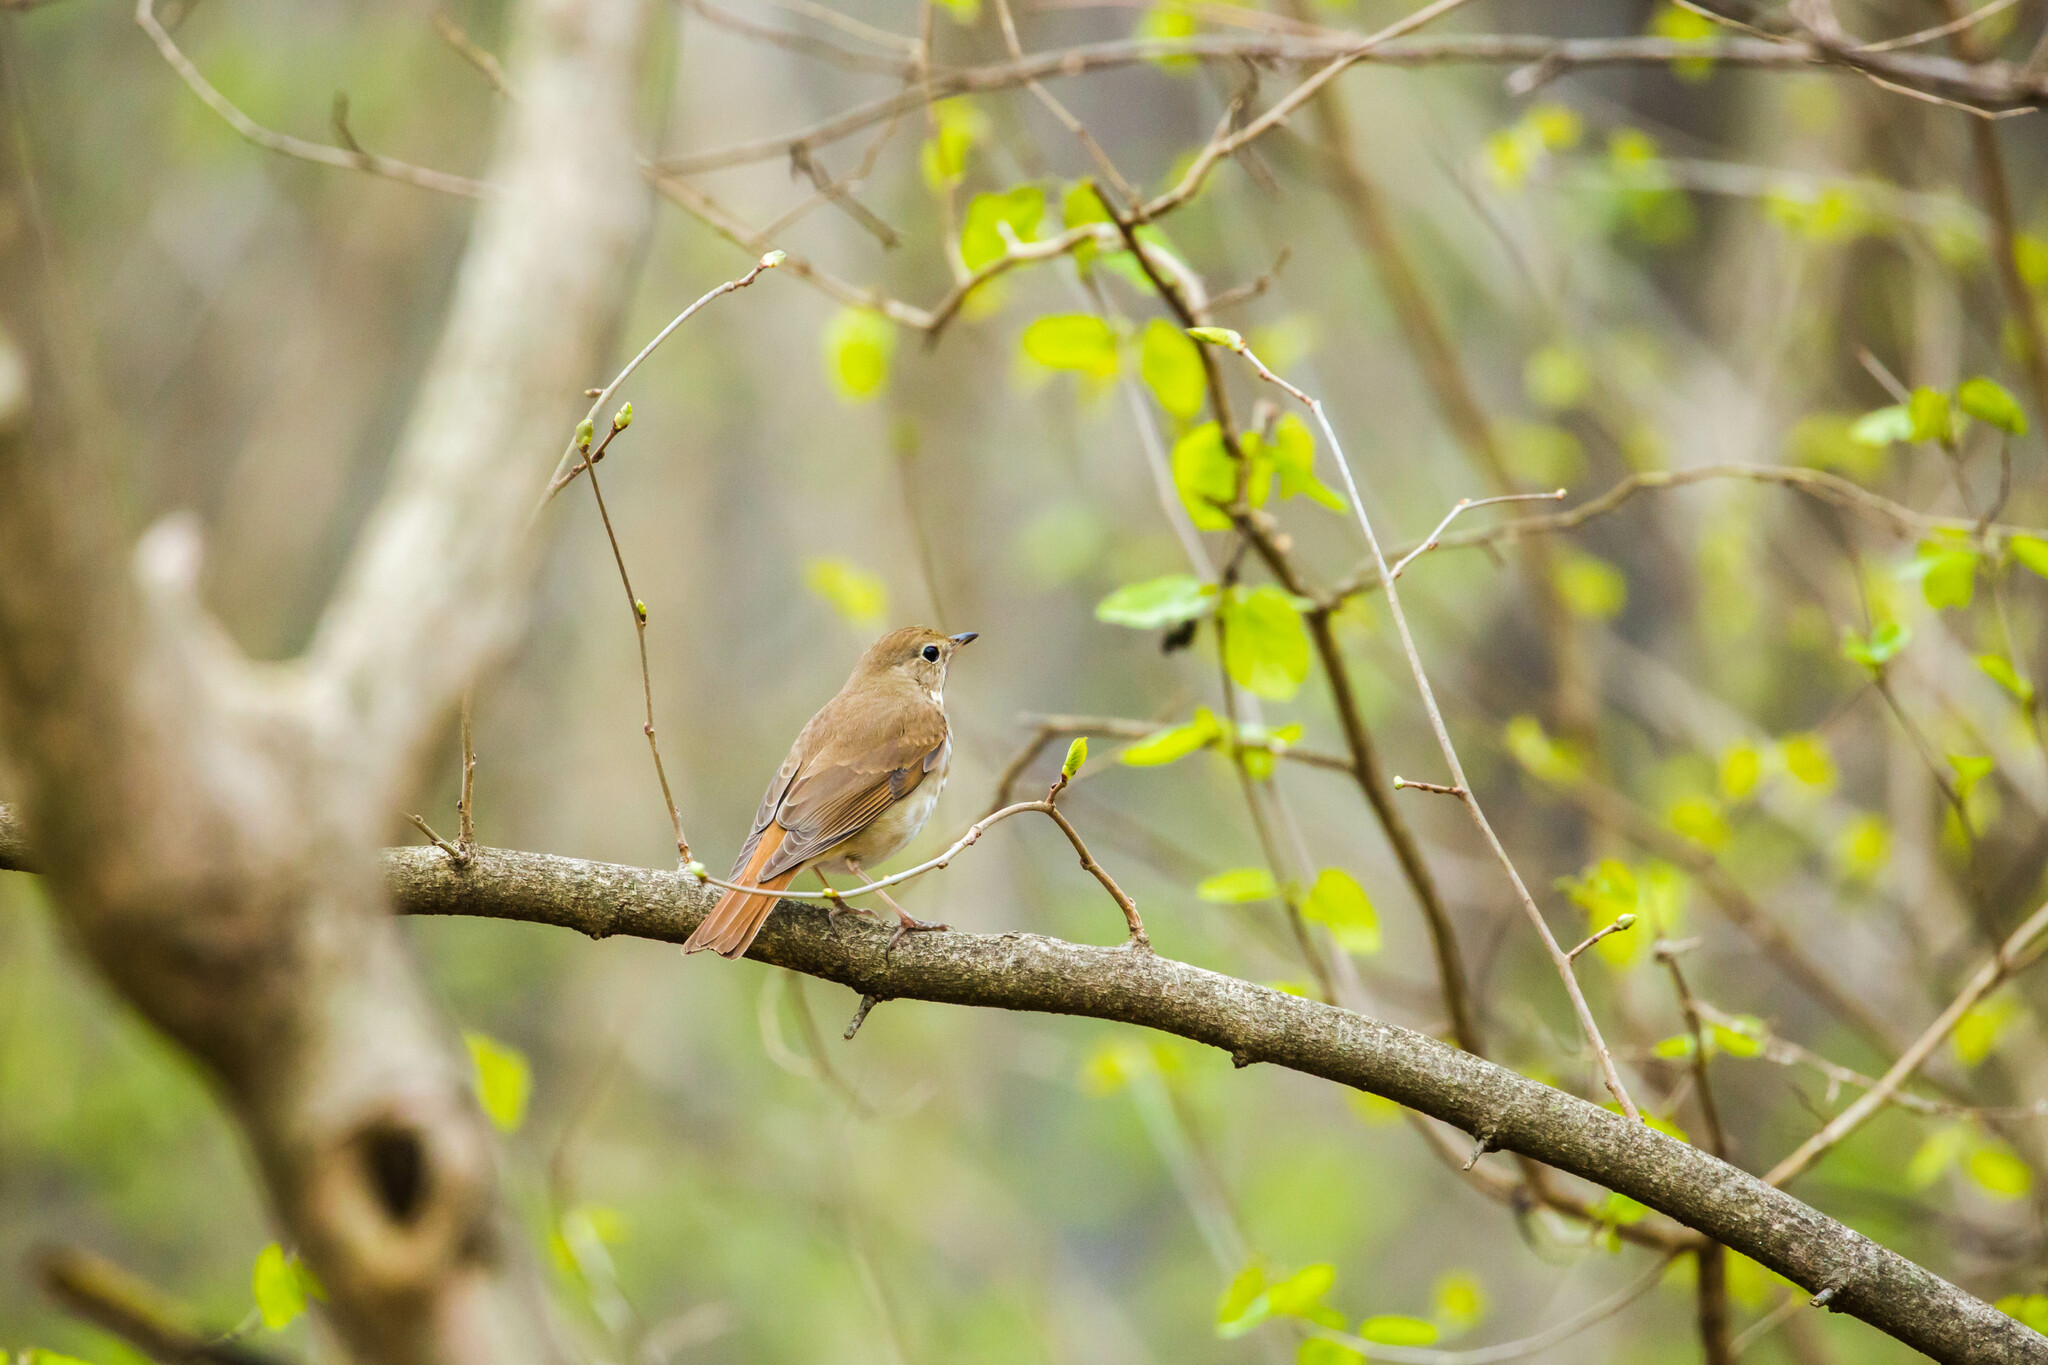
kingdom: Animalia
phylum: Chordata
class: Aves
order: Passeriformes
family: Turdidae
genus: Catharus
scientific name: Catharus guttatus
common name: Hermit thrush
